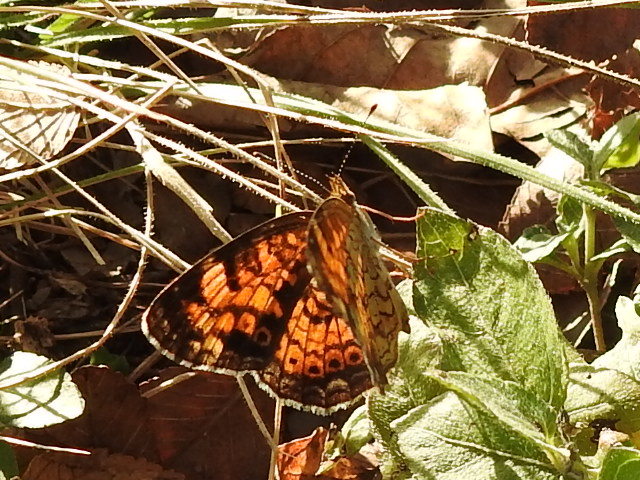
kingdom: Animalia
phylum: Arthropoda
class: Insecta
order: Lepidoptera
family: Nymphalidae
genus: Phyciodes
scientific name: Phyciodes tharos
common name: Pearl crescent
